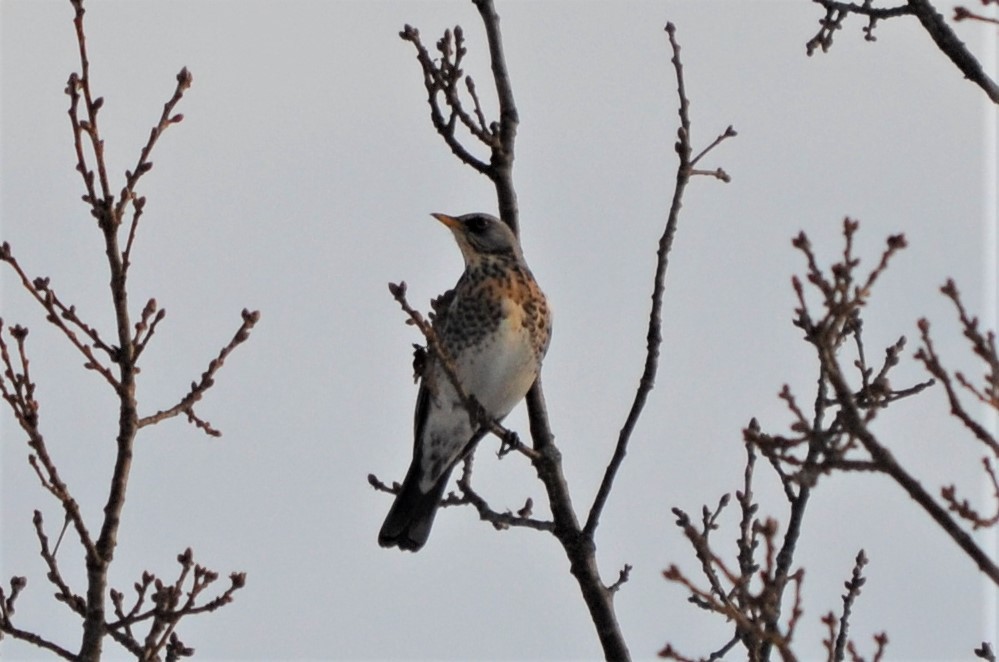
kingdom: Animalia
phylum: Chordata
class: Aves
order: Passeriformes
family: Turdidae
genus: Turdus
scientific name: Turdus pilaris
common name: Fieldfare
